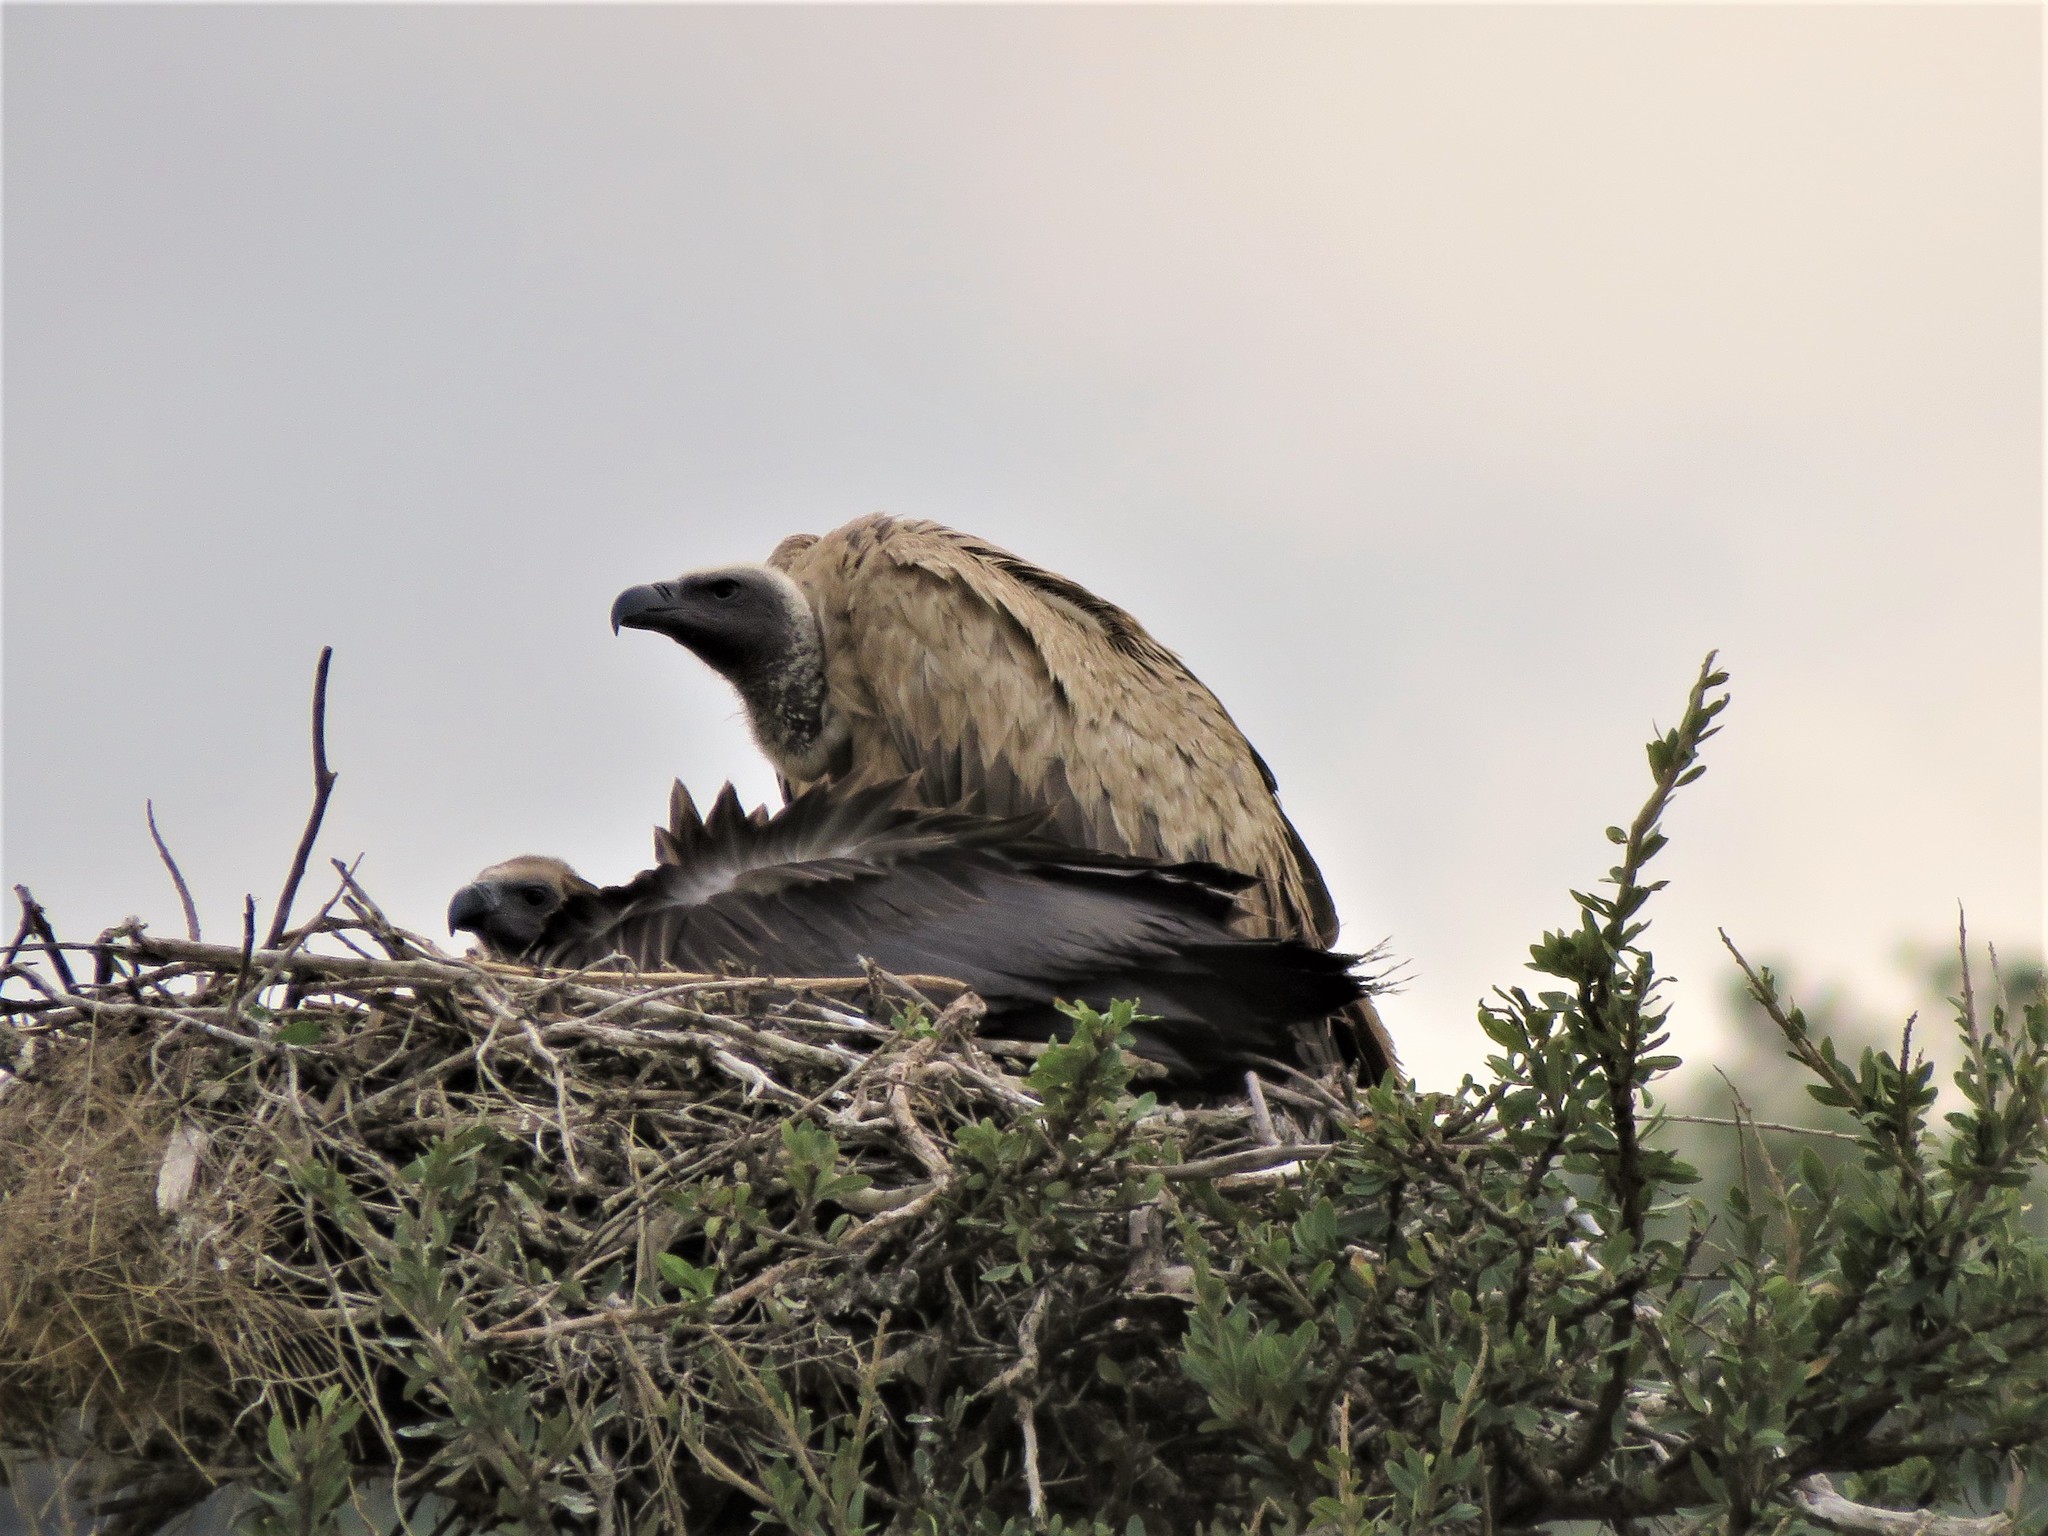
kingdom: Animalia
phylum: Chordata
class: Aves
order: Accipitriformes
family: Accipitridae
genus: Gyps
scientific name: Gyps africanus
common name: White-backed vulture
